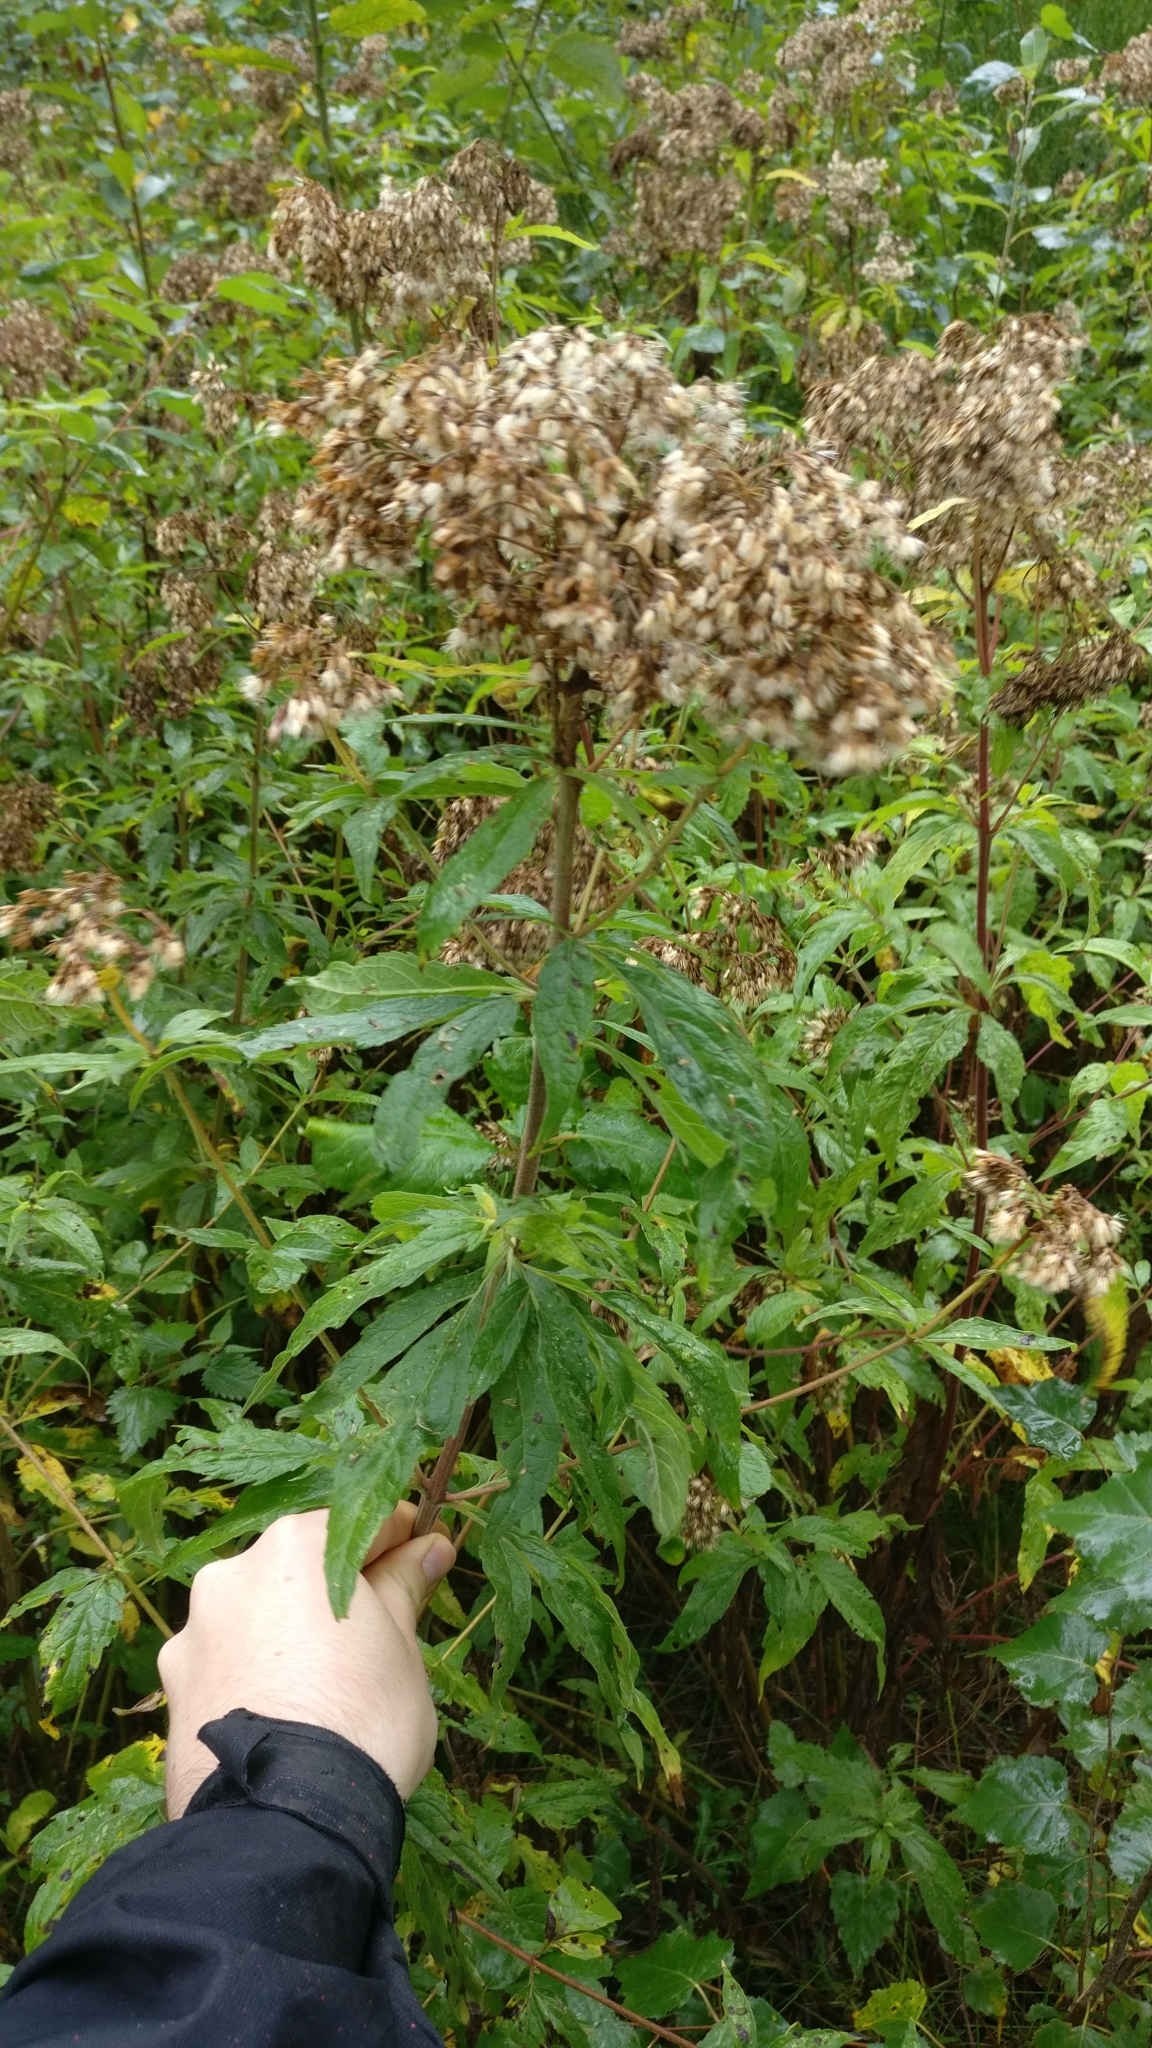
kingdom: Plantae
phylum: Tracheophyta
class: Magnoliopsida
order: Asterales
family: Asteraceae
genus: Eupatorium
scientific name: Eupatorium cannabinum
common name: Hemp-agrimony
